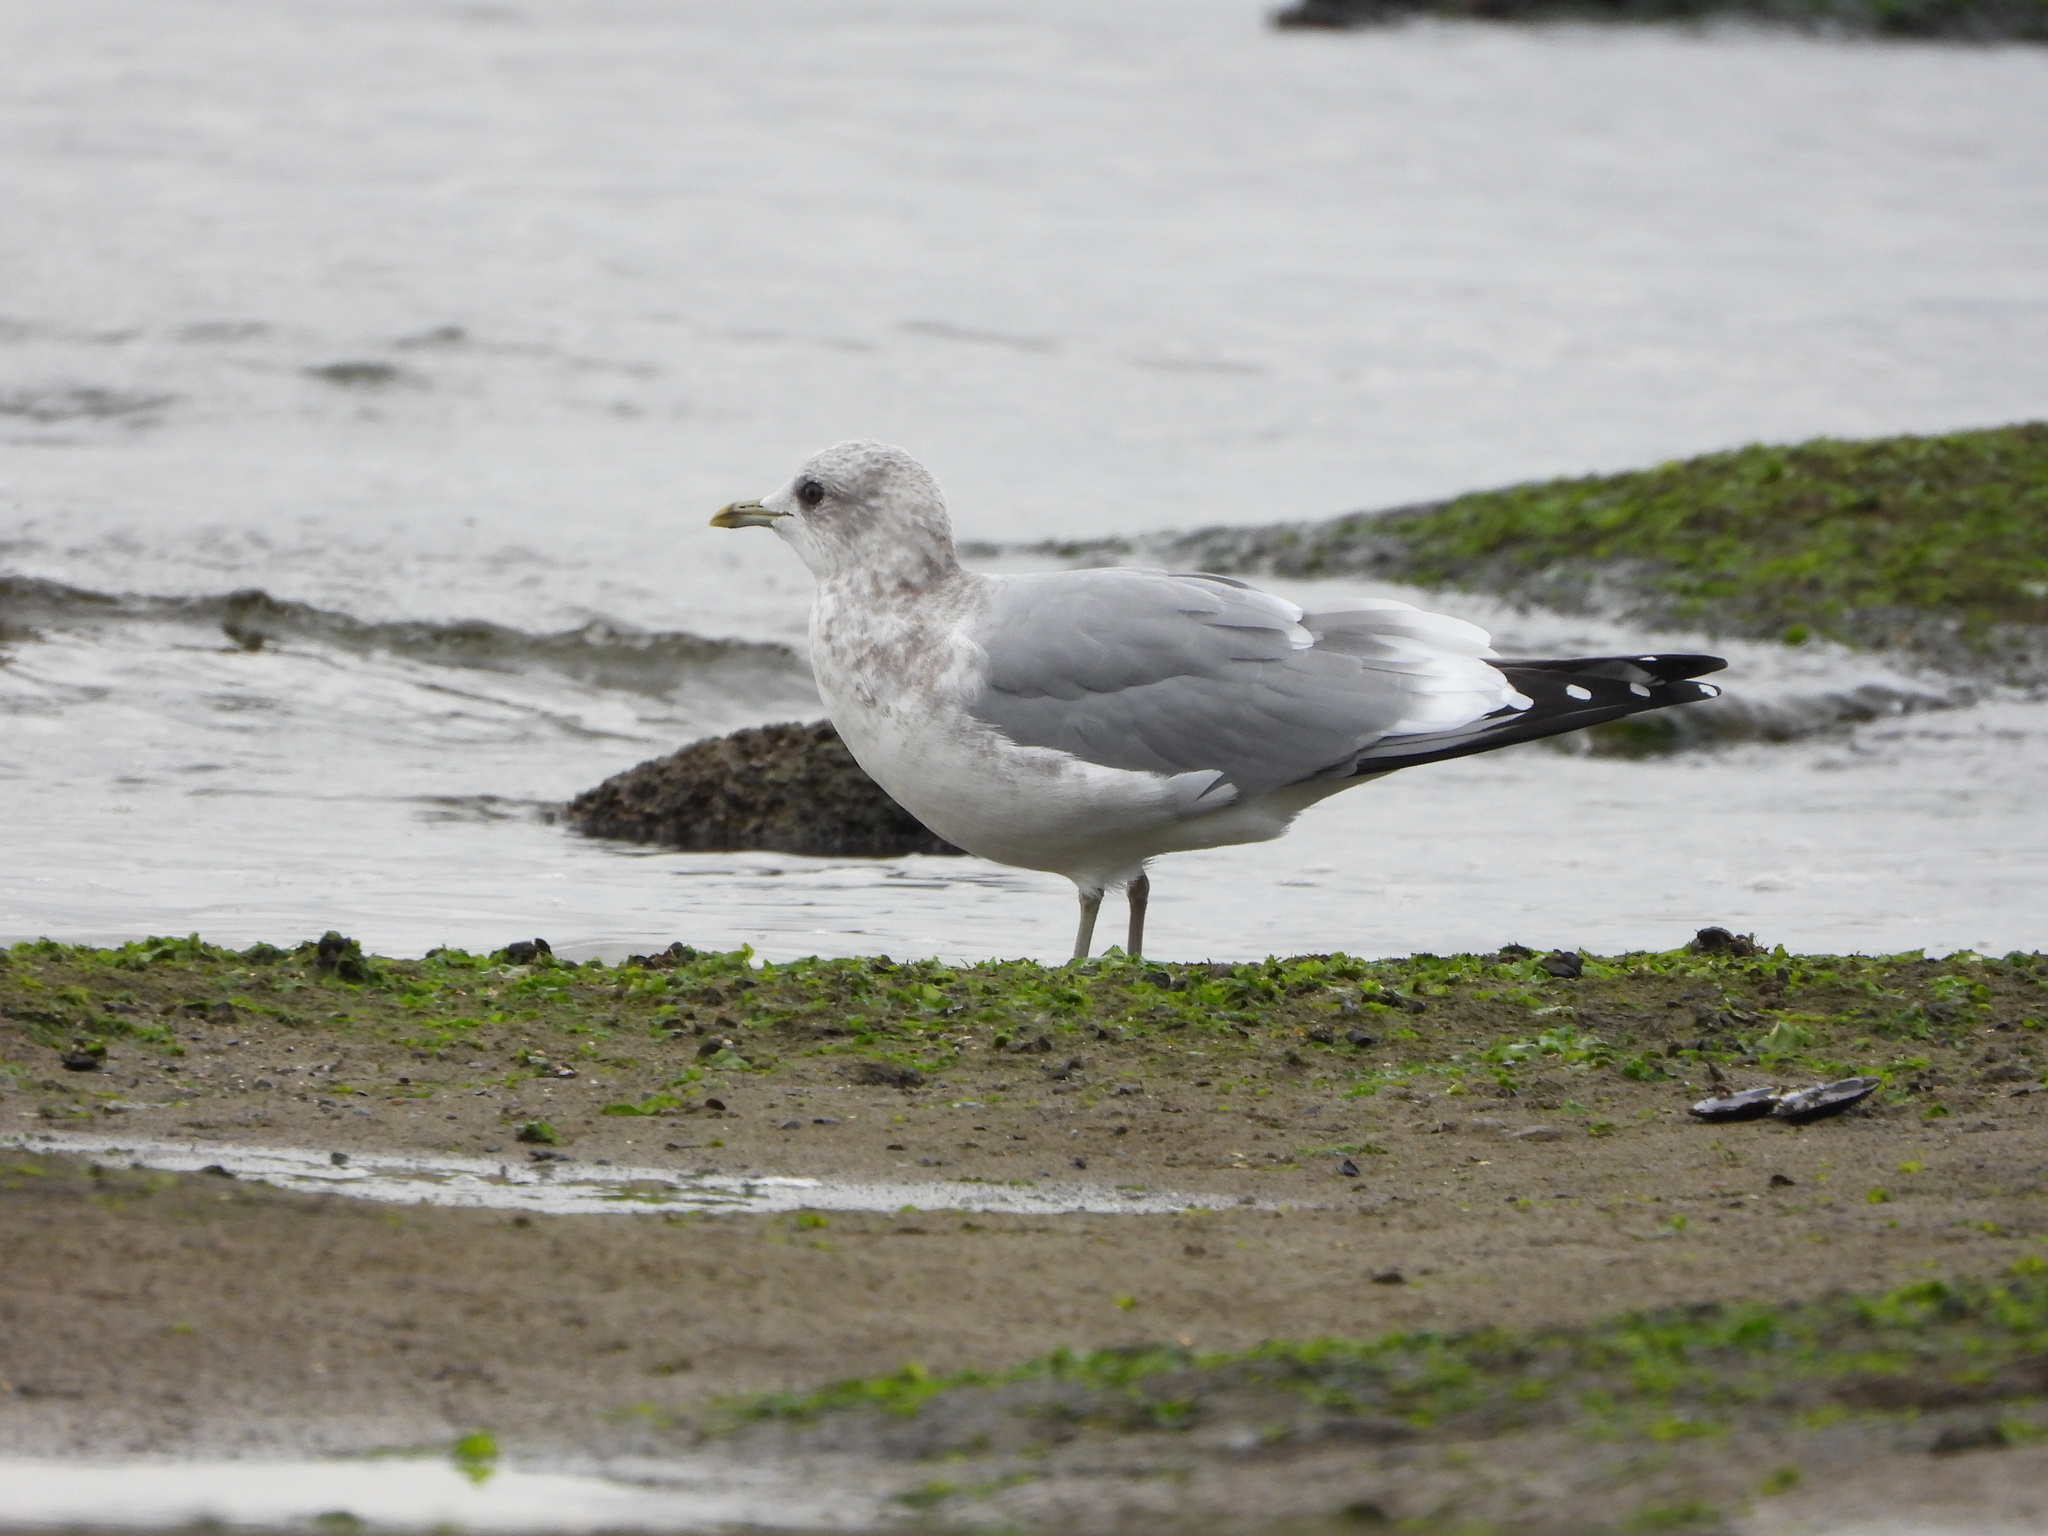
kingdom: Animalia
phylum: Chordata
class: Aves
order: Charadriiformes
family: Laridae
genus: Larus
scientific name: Larus brachyrhynchus
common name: Short-billed gull
